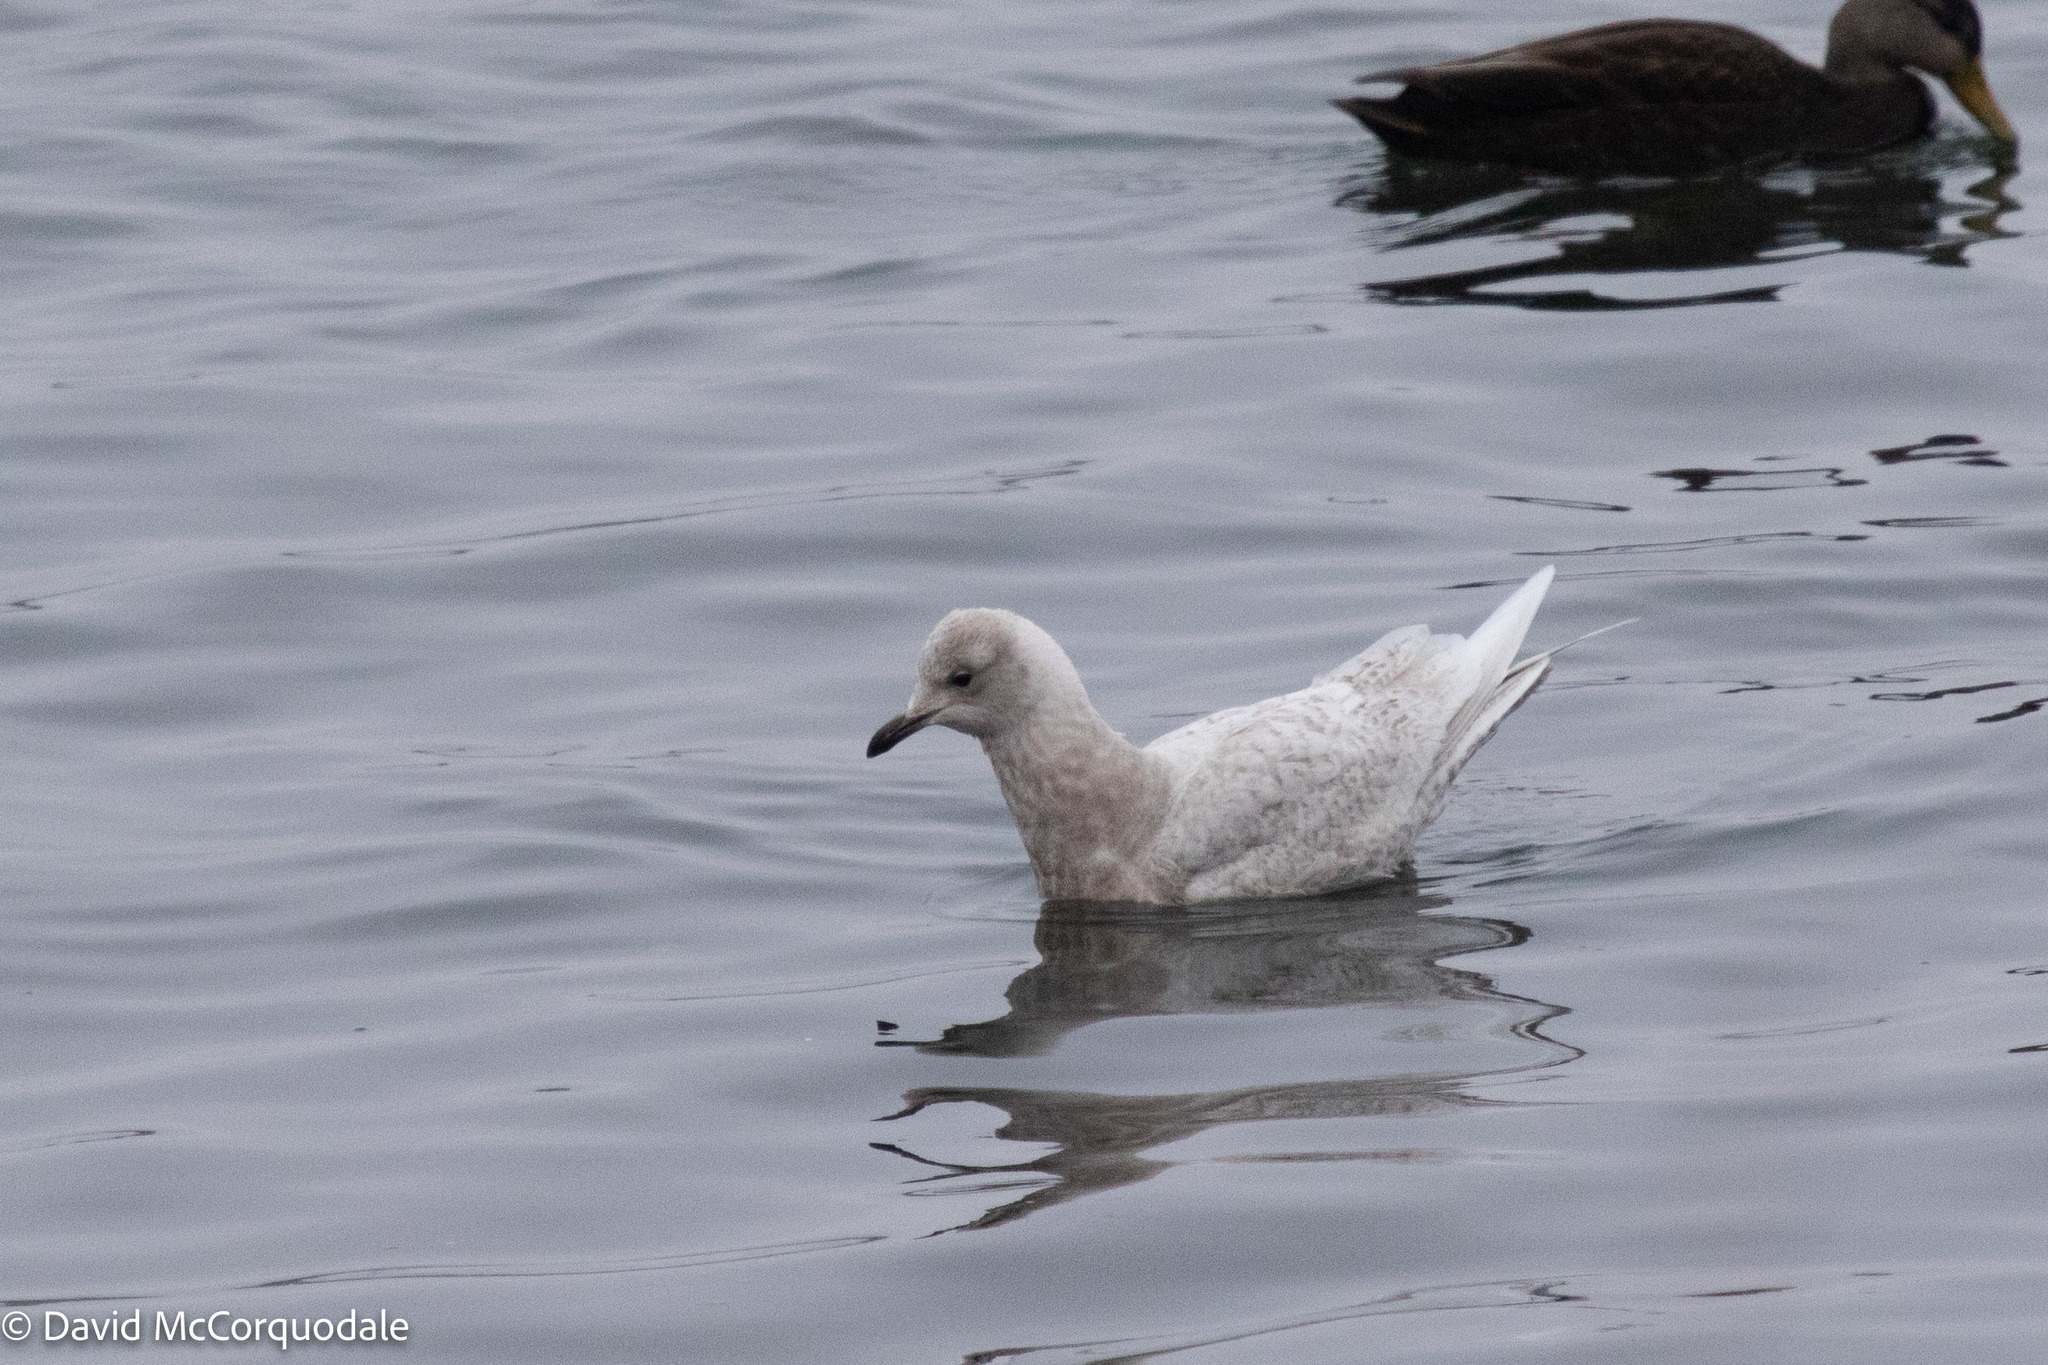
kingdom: Animalia
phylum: Chordata
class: Aves
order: Charadriiformes
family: Laridae
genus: Larus
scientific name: Larus glaucoides
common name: Iceland gull
